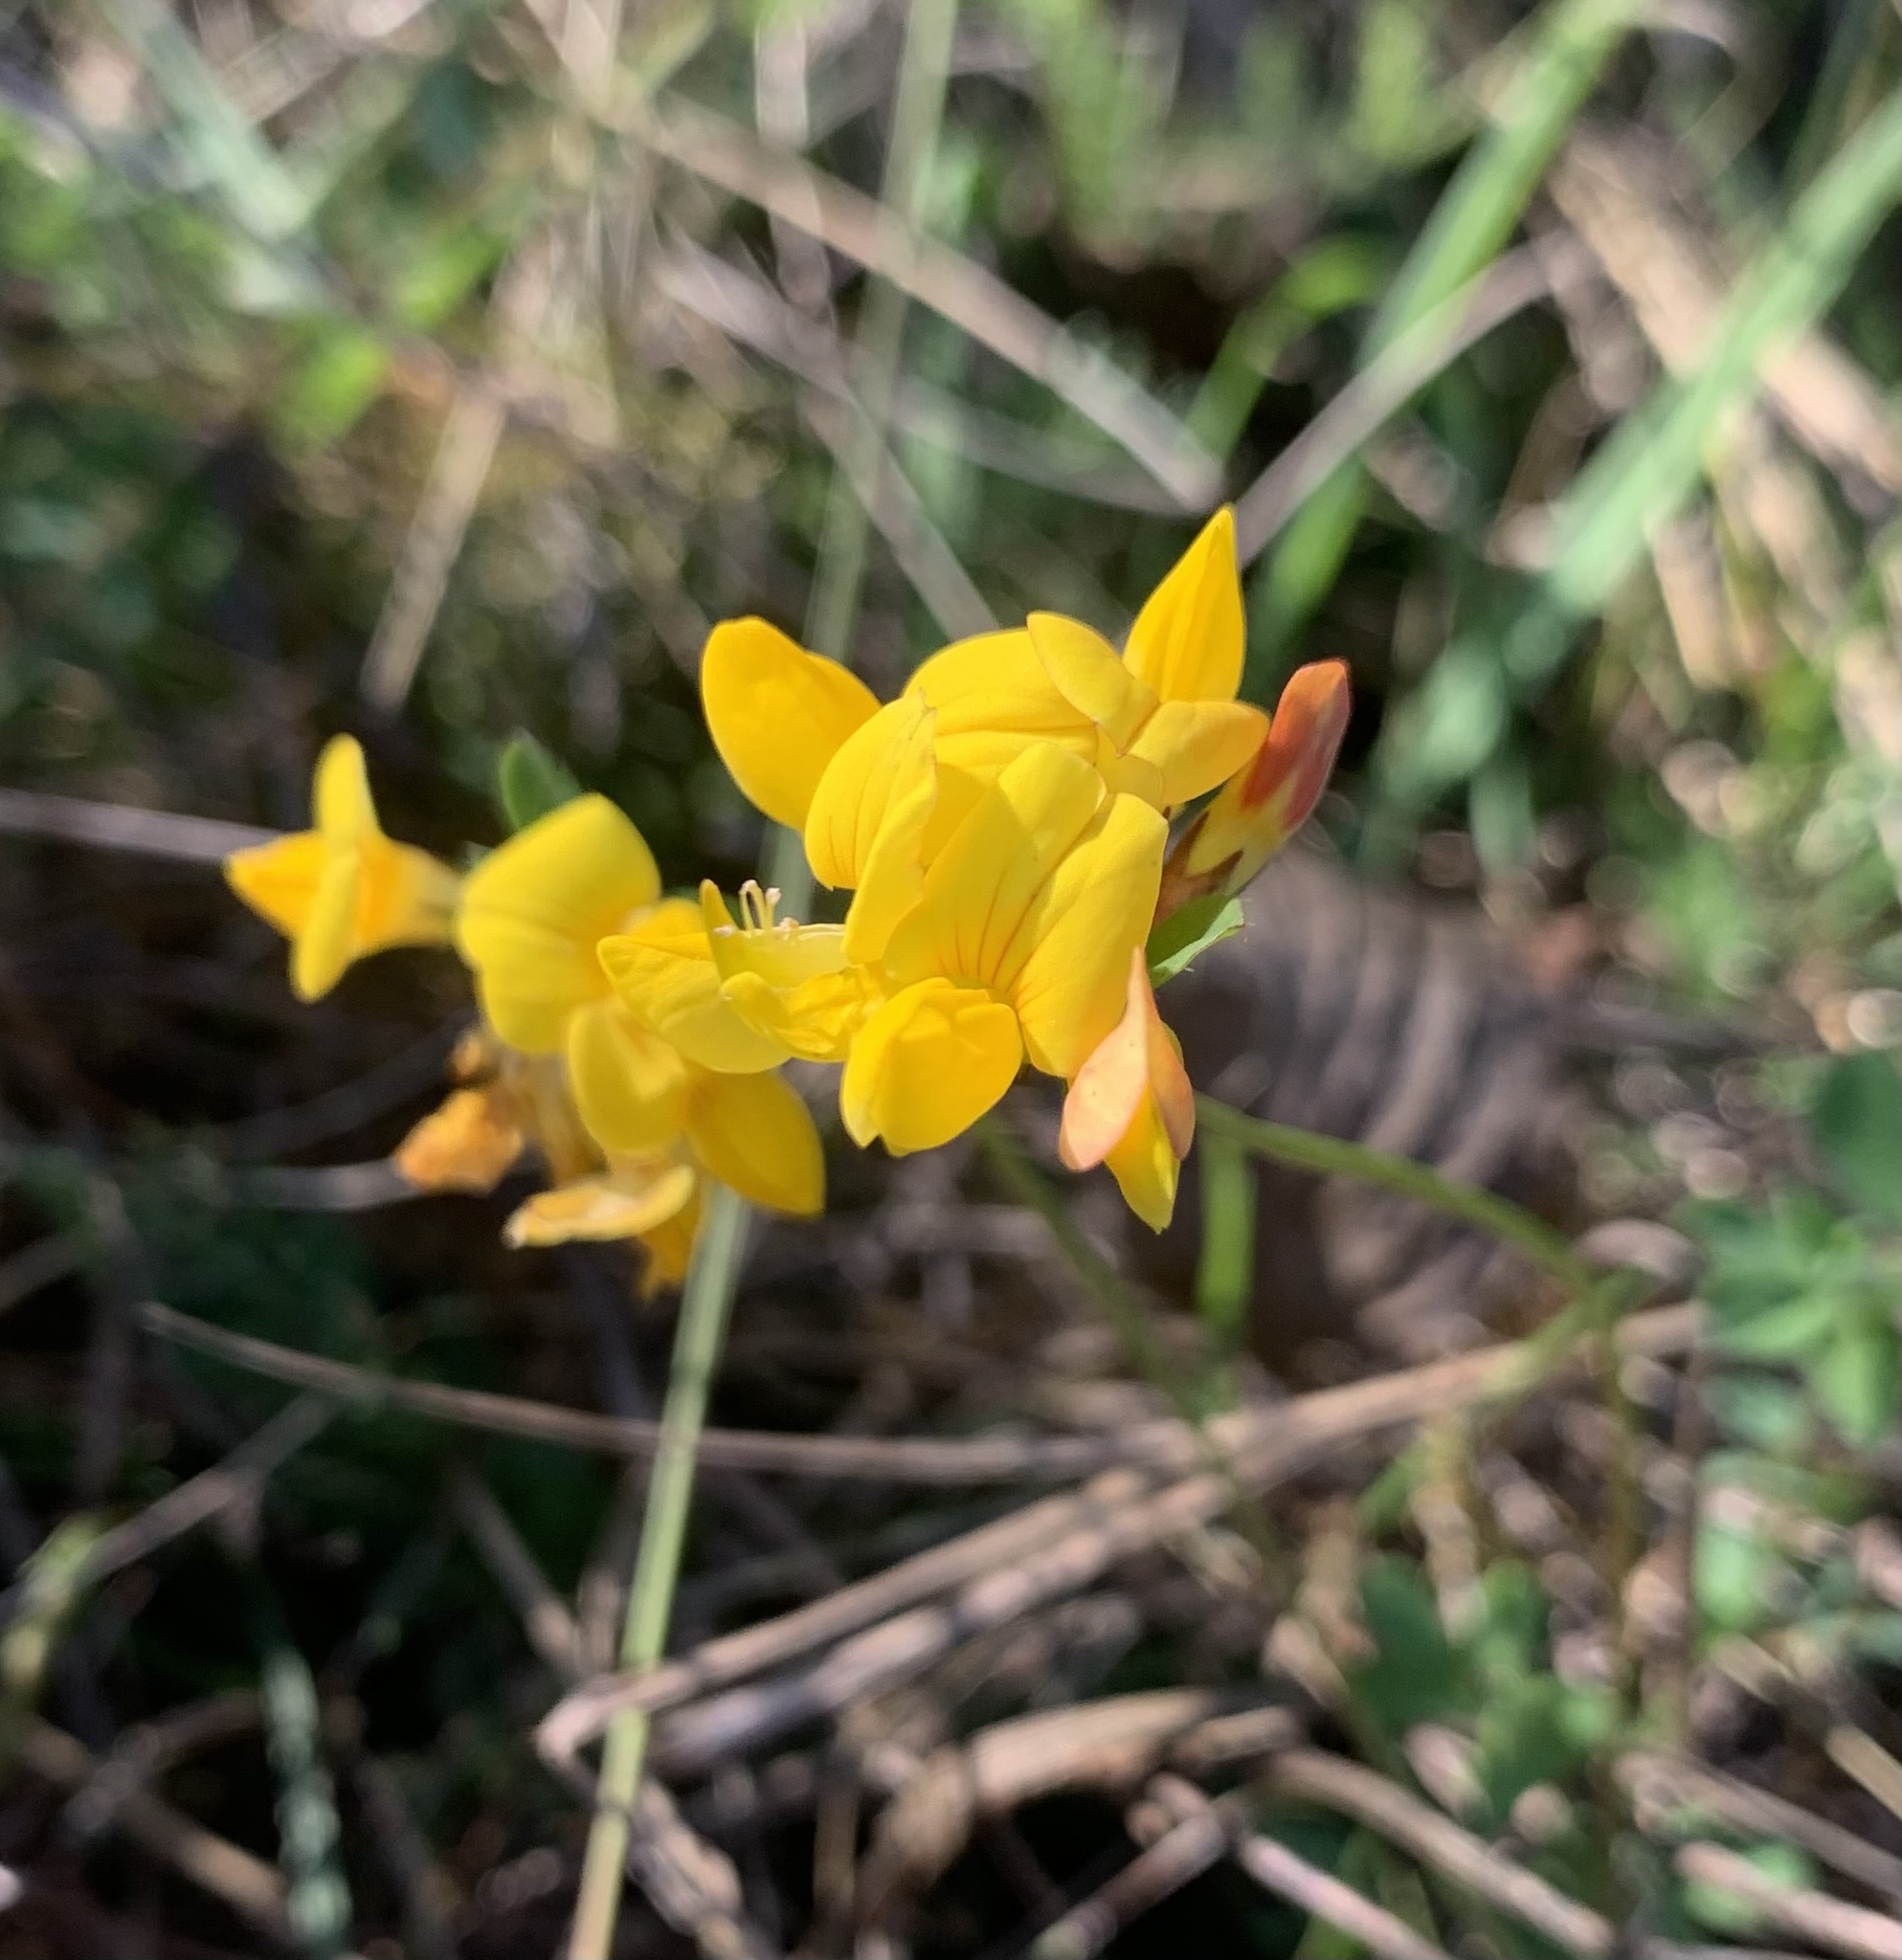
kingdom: Plantae
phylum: Tracheophyta
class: Magnoliopsida
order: Fabales
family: Fabaceae
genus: Lotus
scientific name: Lotus corniculatus
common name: Common bird's-foot-trefoil
